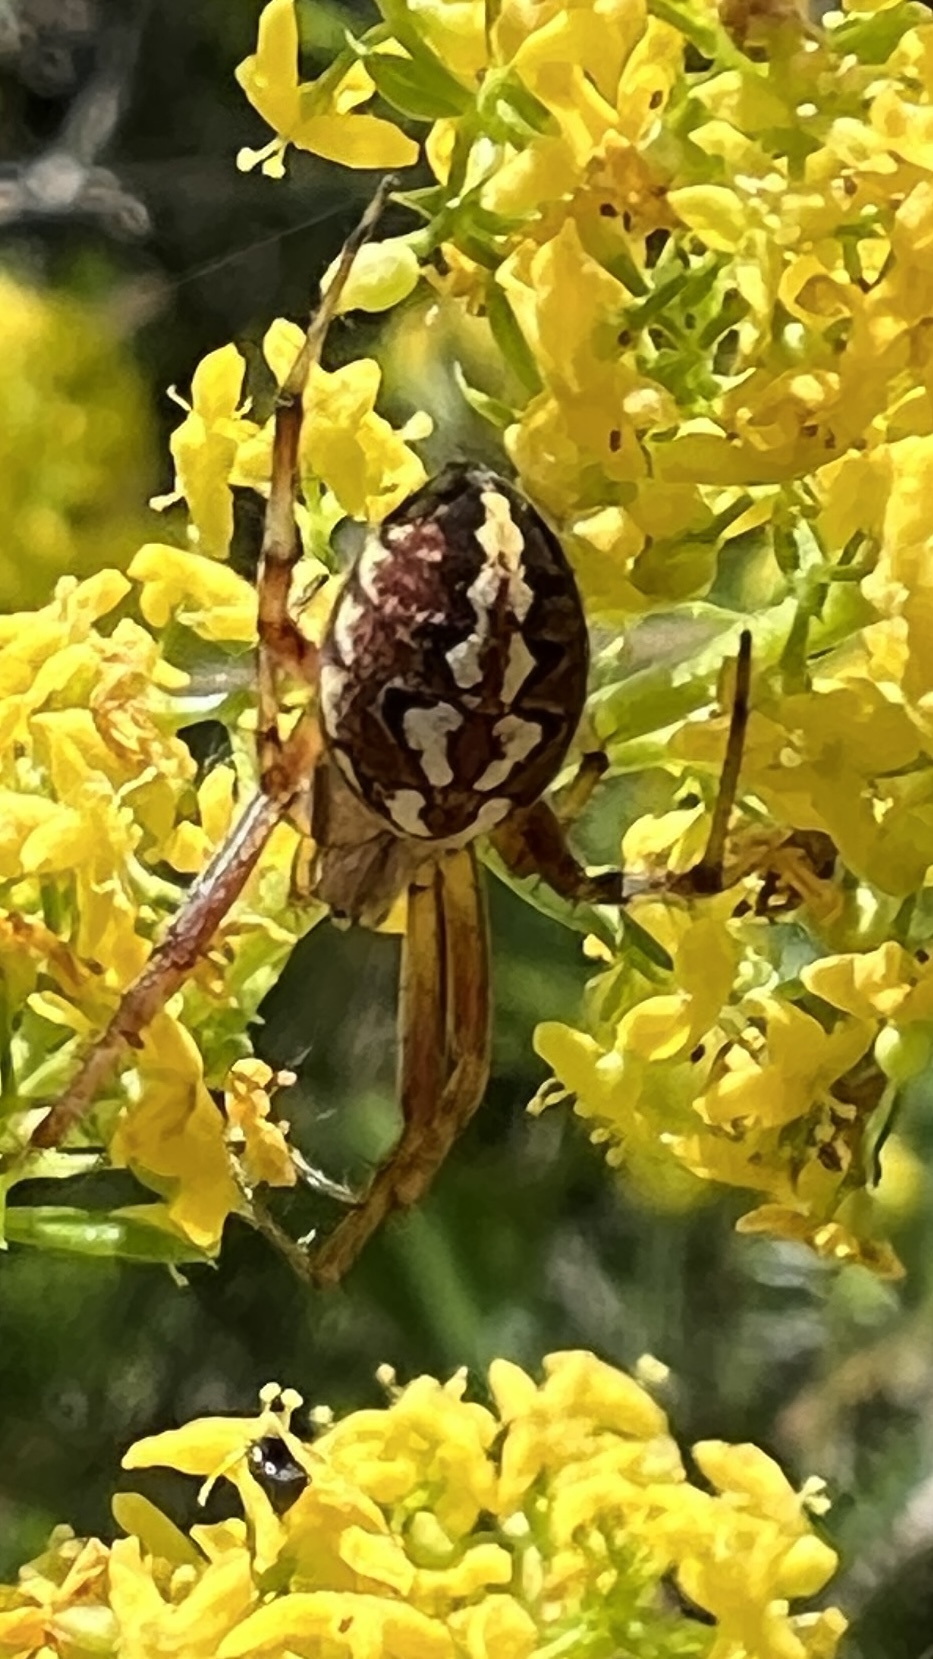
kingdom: Animalia
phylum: Arthropoda
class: Arachnida
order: Araneae
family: Araneidae
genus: Neoscona
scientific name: Neoscona adianta
